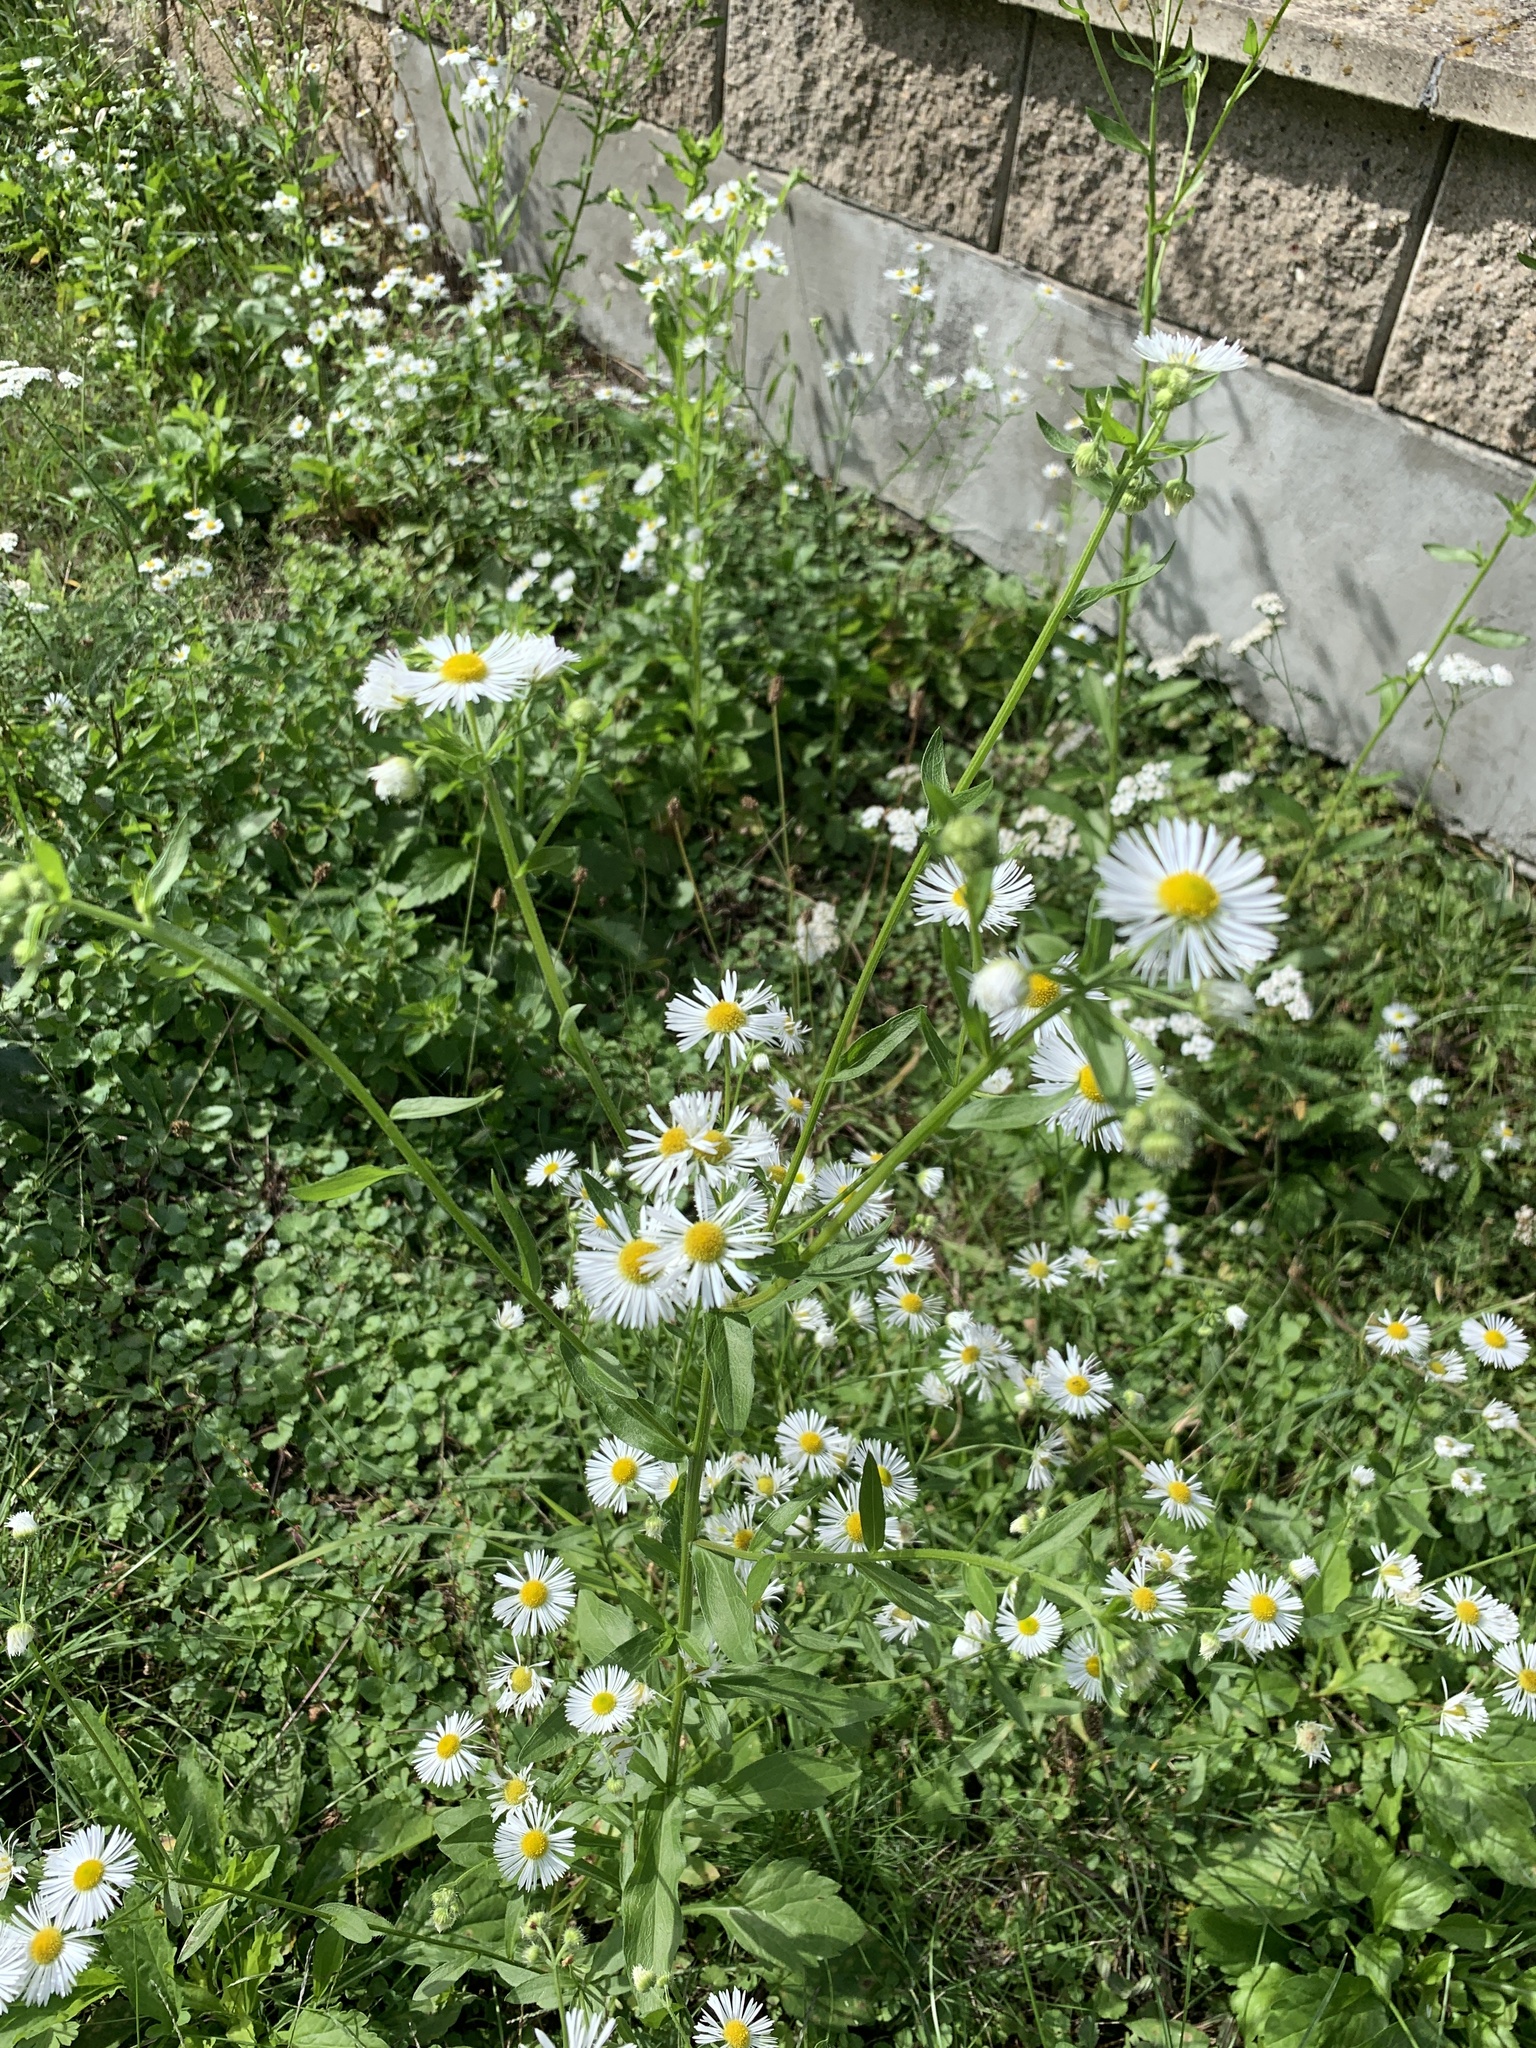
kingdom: Plantae
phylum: Tracheophyta
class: Magnoliopsida
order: Asterales
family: Asteraceae
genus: Erigeron
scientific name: Erigeron annuus
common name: Tall fleabane
